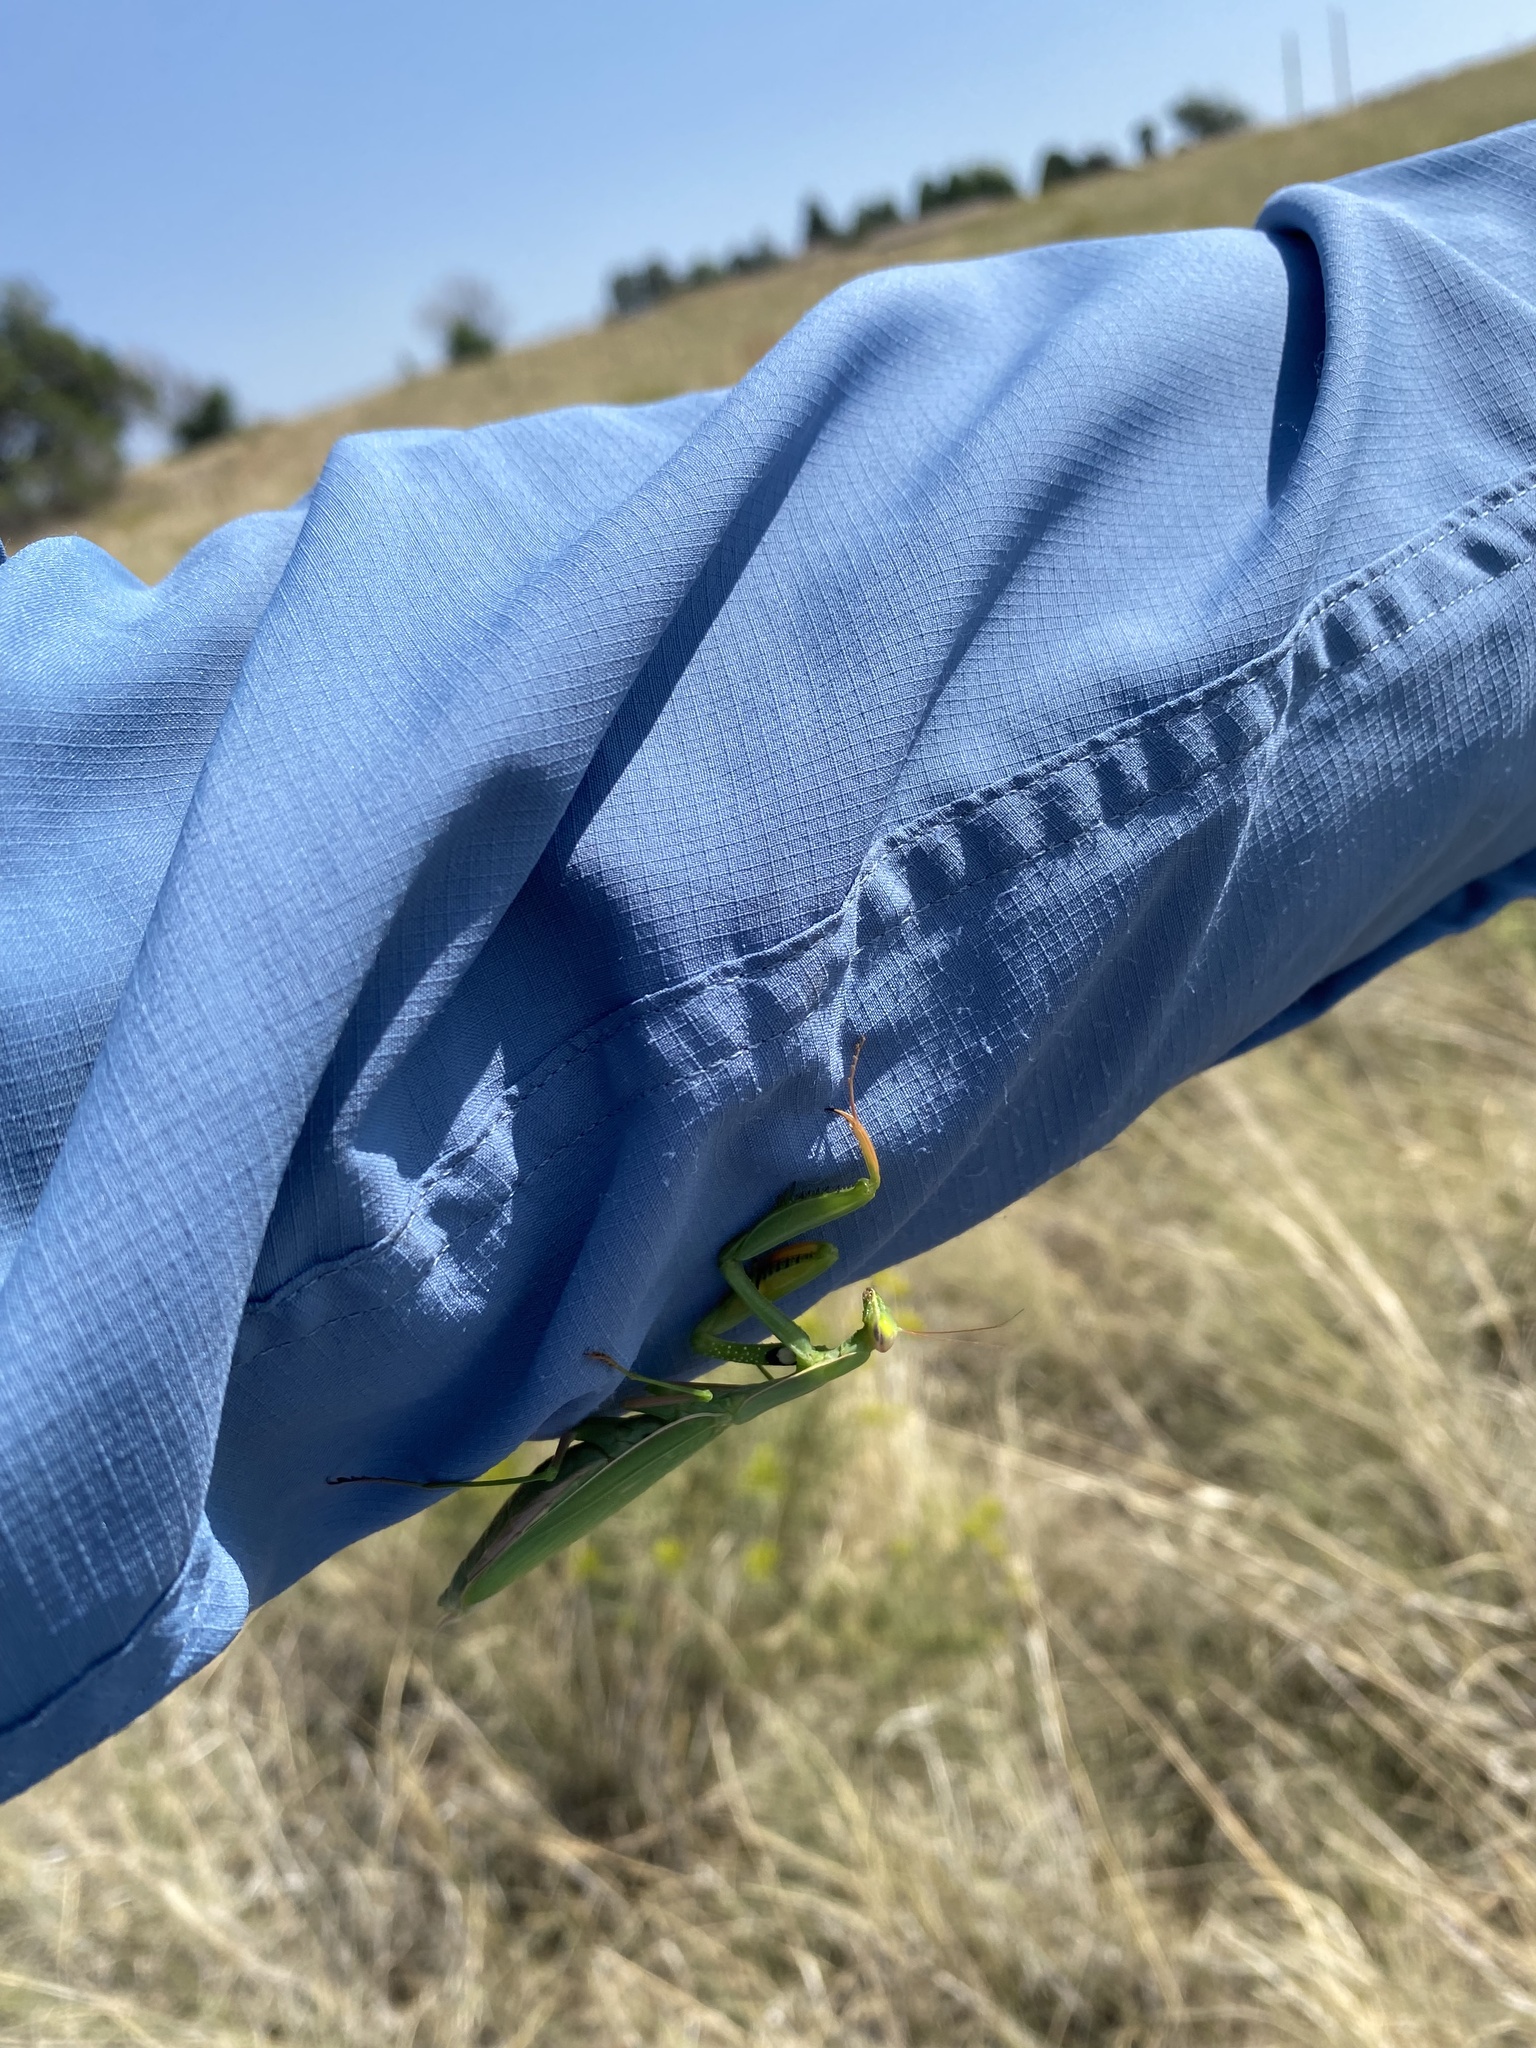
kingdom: Animalia
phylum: Arthropoda
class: Insecta
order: Mantodea
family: Mantidae
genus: Mantis
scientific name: Mantis religiosa
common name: Praying mantis
